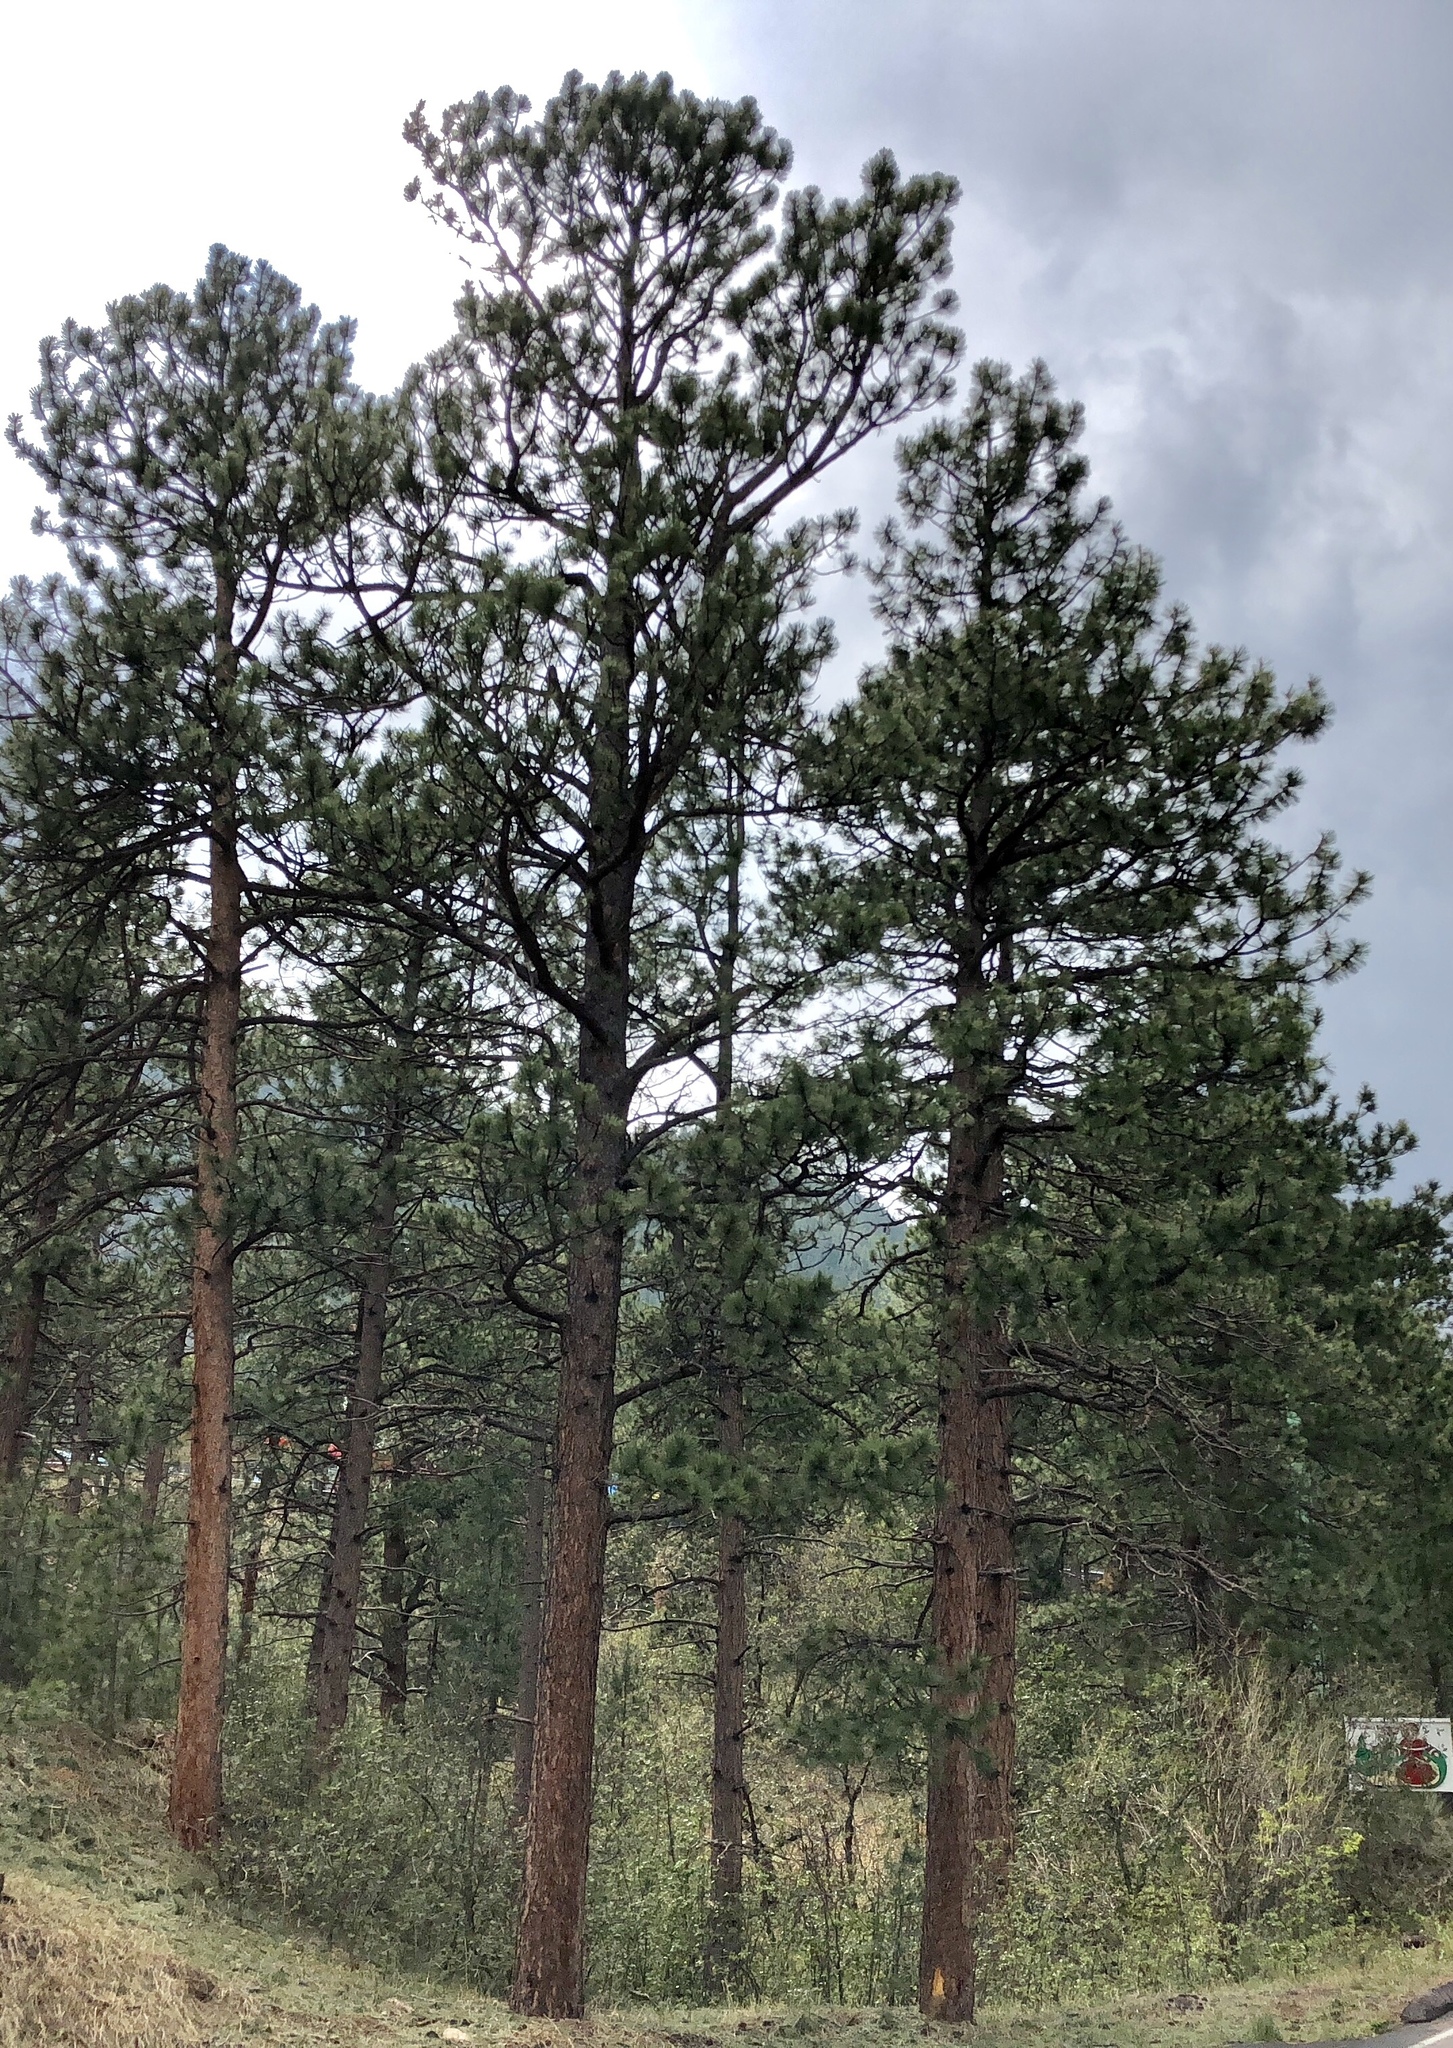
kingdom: Plantae
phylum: Tracheophyta
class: Pinopsida
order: Pinales
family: Pinaceae
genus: Pinus
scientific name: Pinus ponderosa
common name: Western yellow-pine
